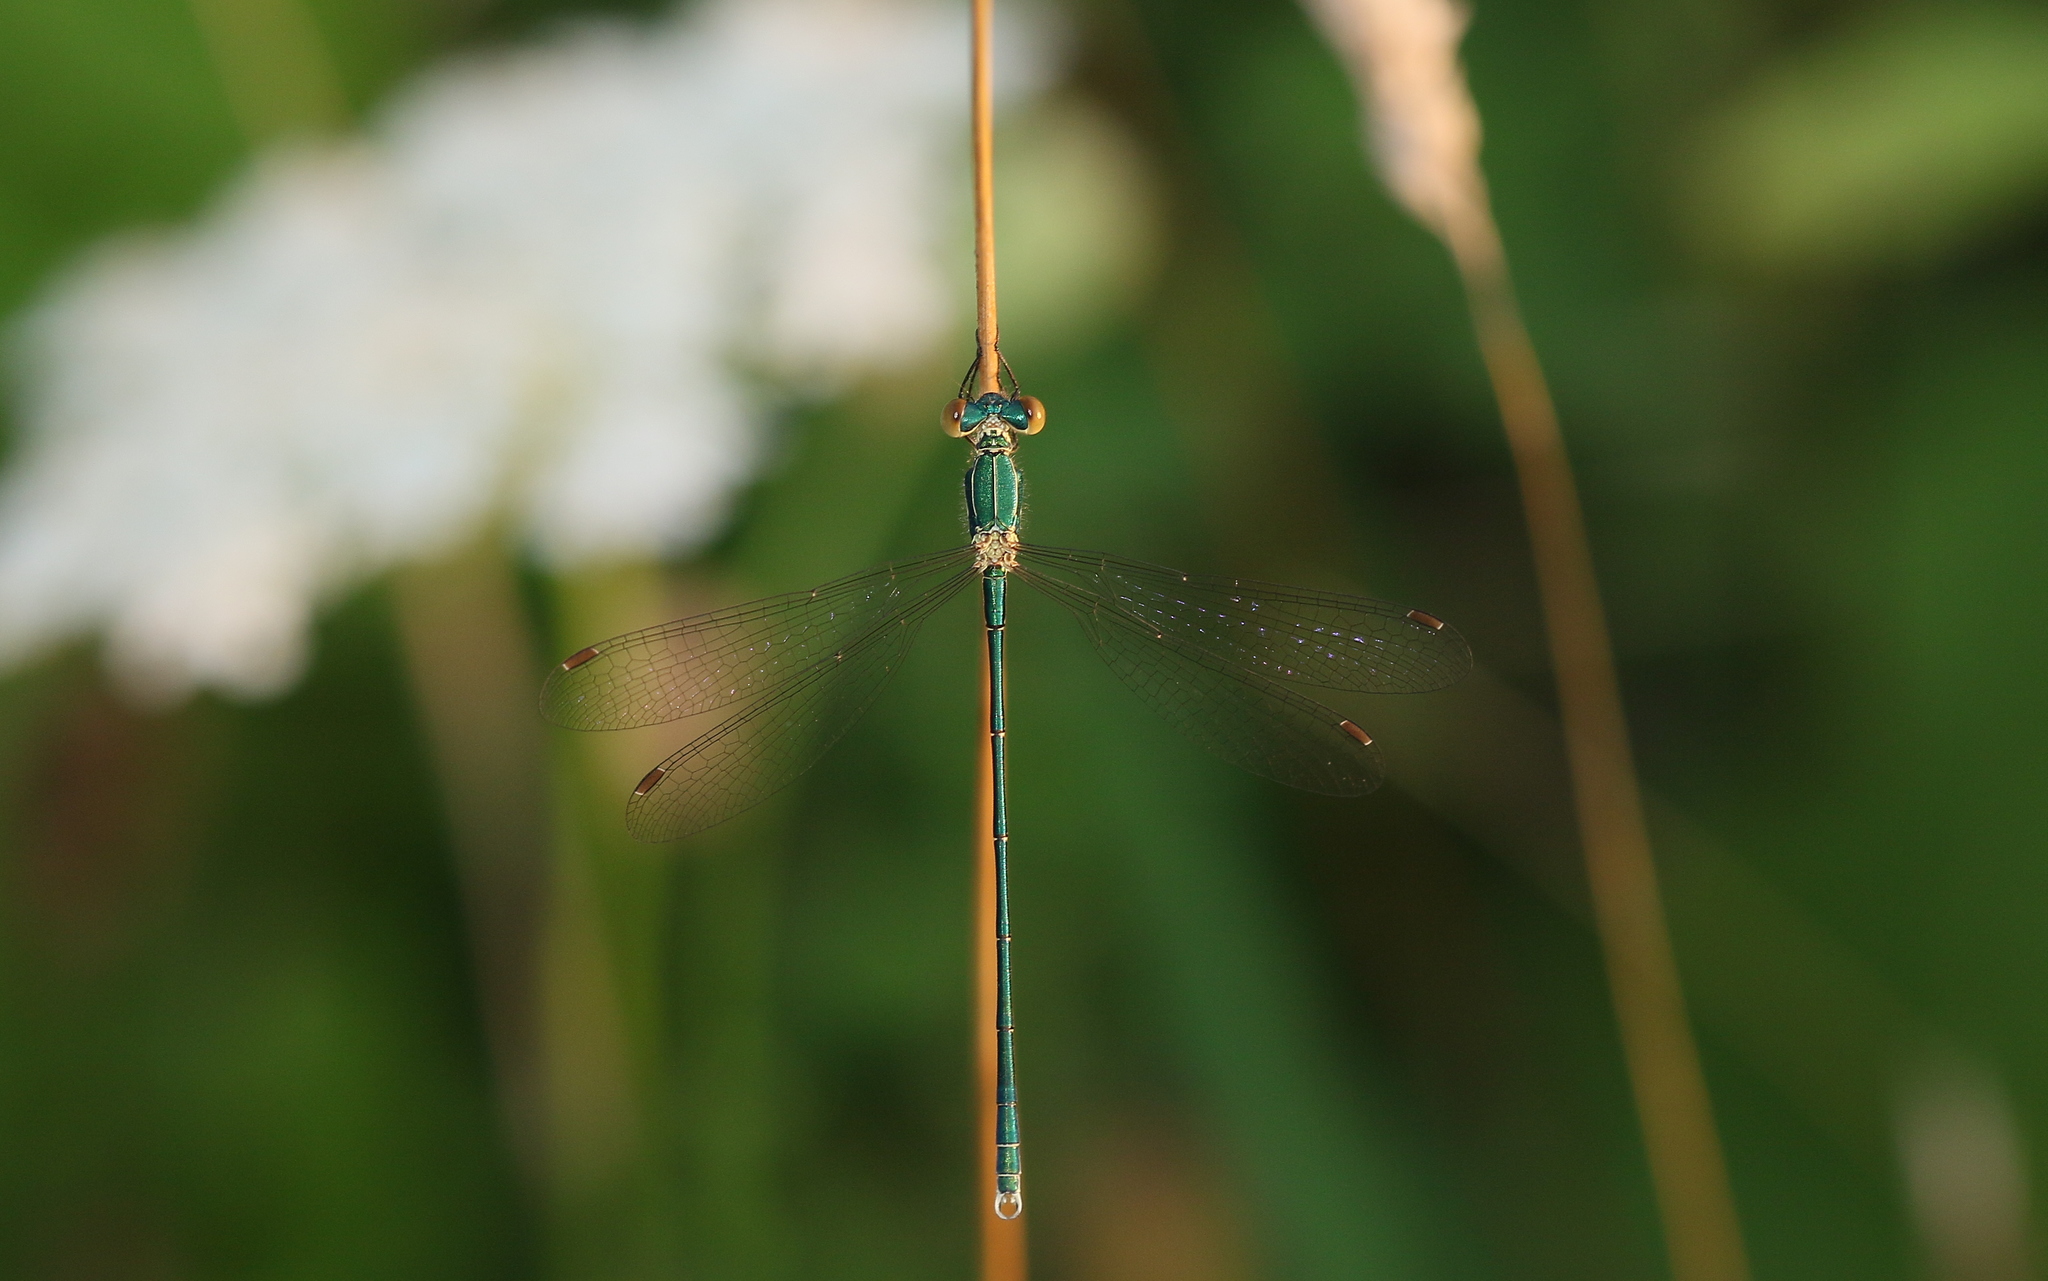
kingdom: Animalia
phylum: Arthropoda
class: Insecta
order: Odonata
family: Lestidae
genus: Lestes
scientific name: Lestes virens
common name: Small emerald spreadwing
